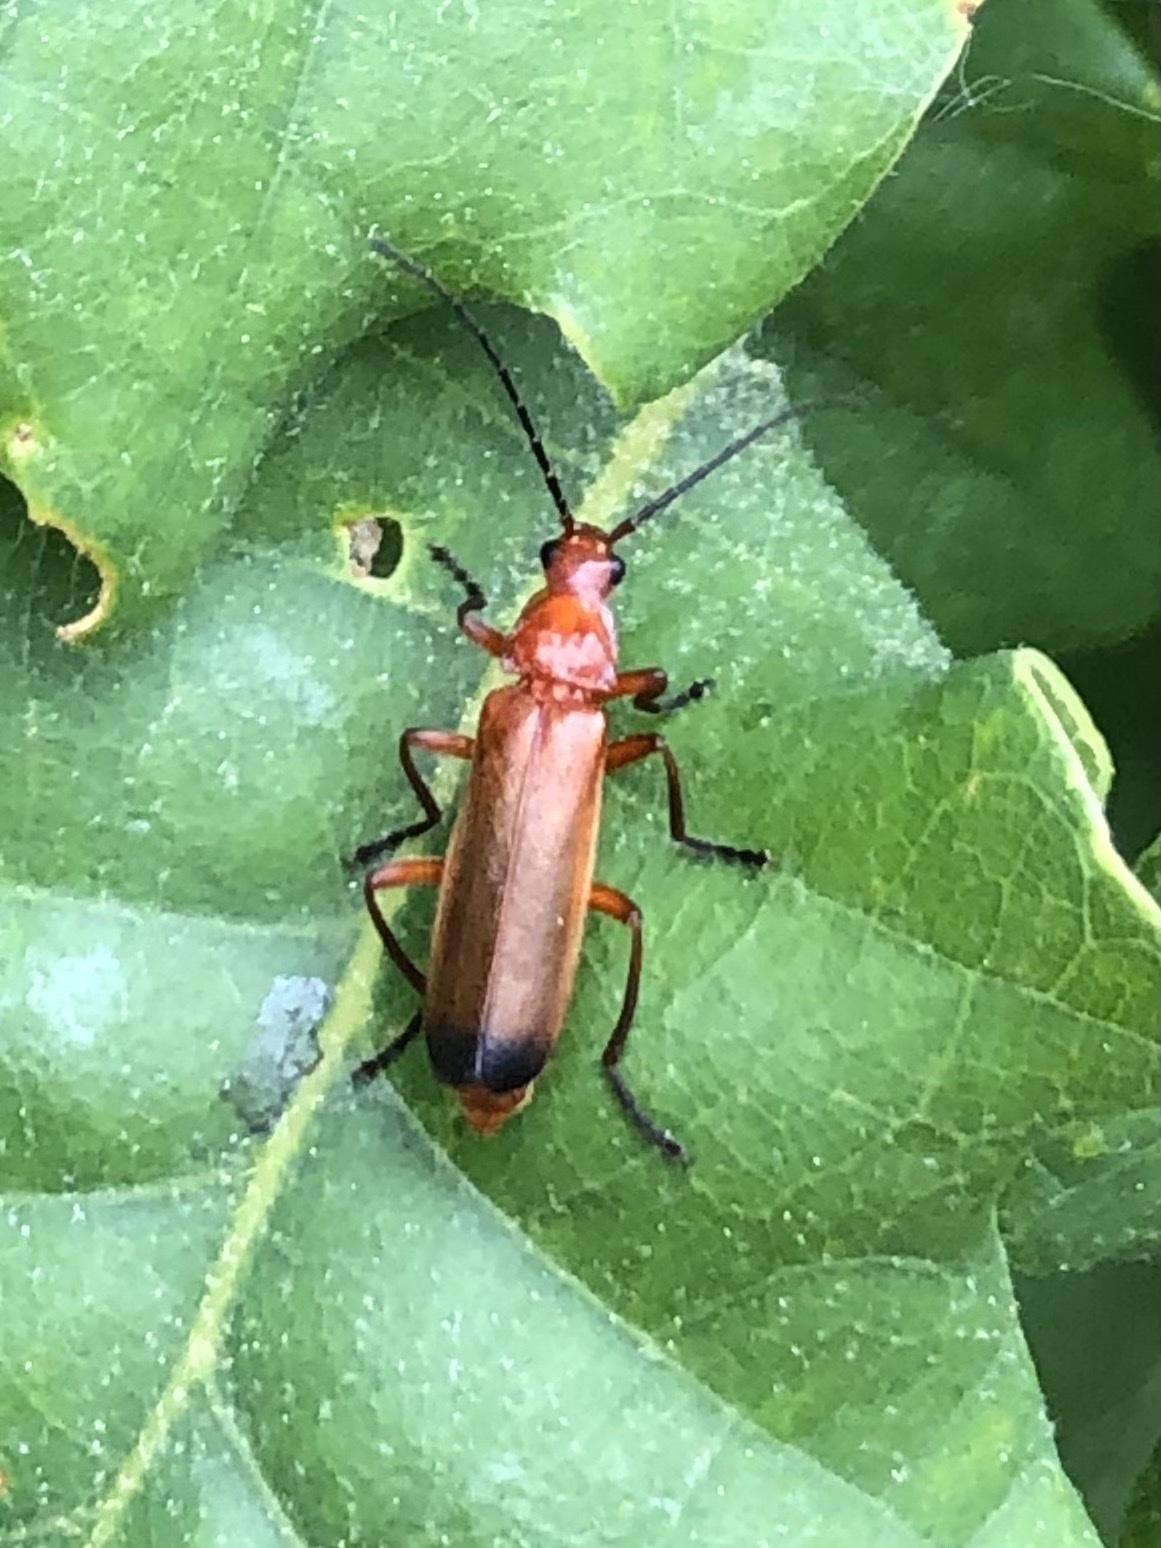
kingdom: Animalia
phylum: Arthropoda
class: Insecta
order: Coleoptera
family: Cantharidae
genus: Rhagonycha
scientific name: Rhagonycha fulva
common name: Common red soldier beetle
